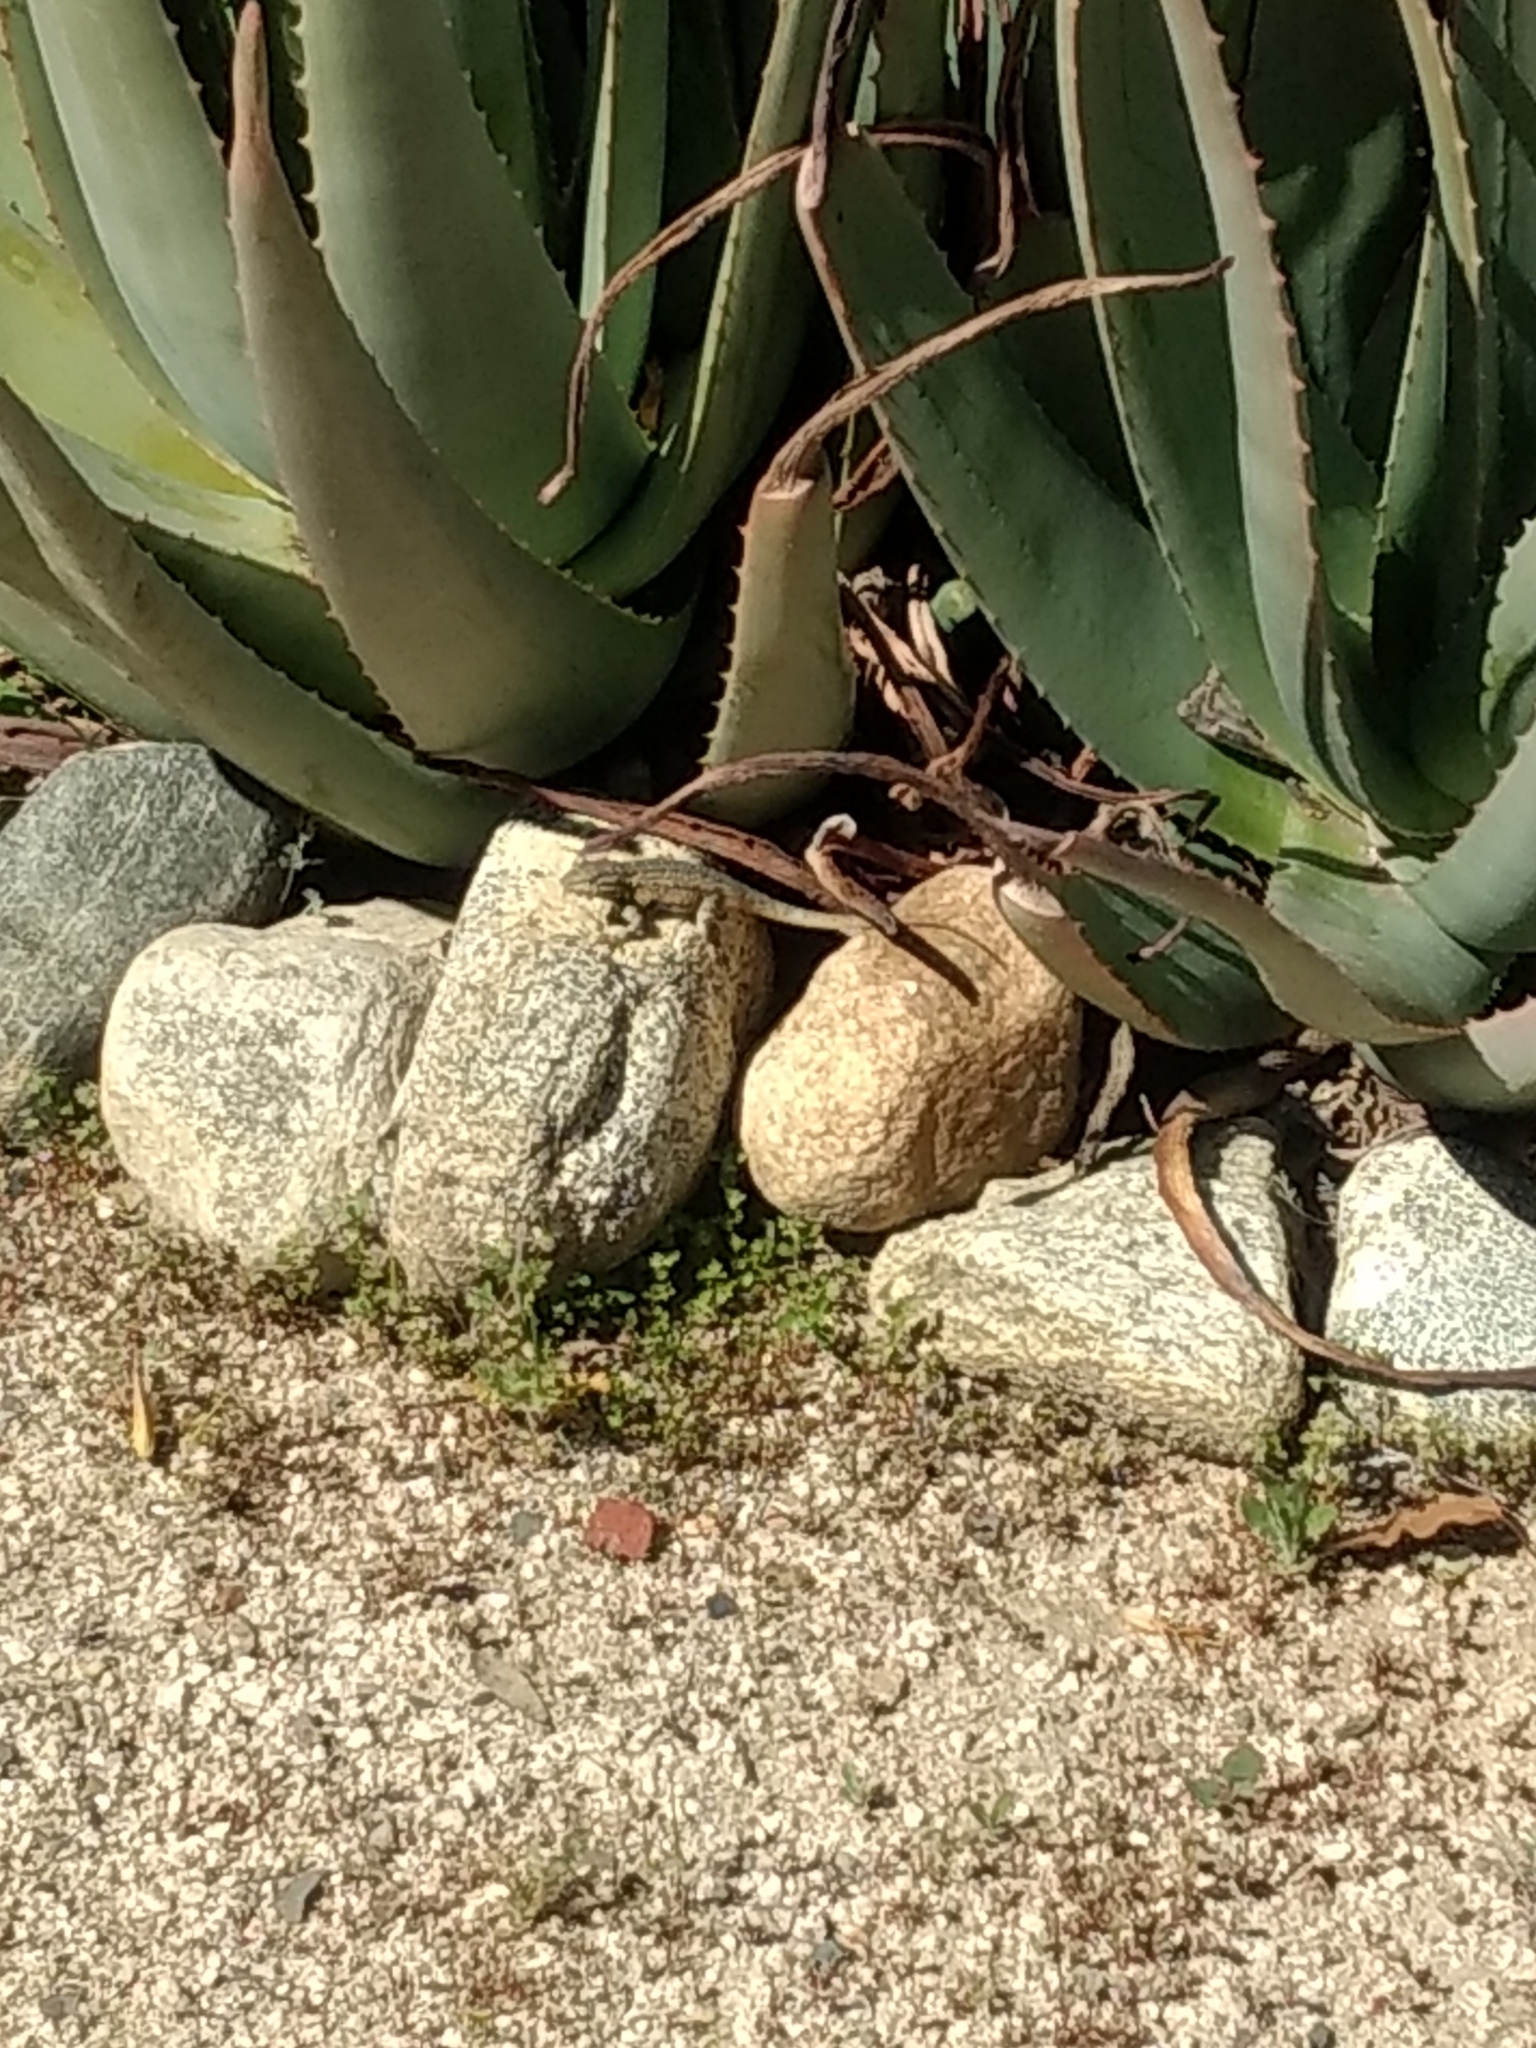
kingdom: Animalia
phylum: Chordata
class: Squamata
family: Phrynosomatidae
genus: Uta
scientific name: Uta stansburiana
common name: Side-blotched lizard
